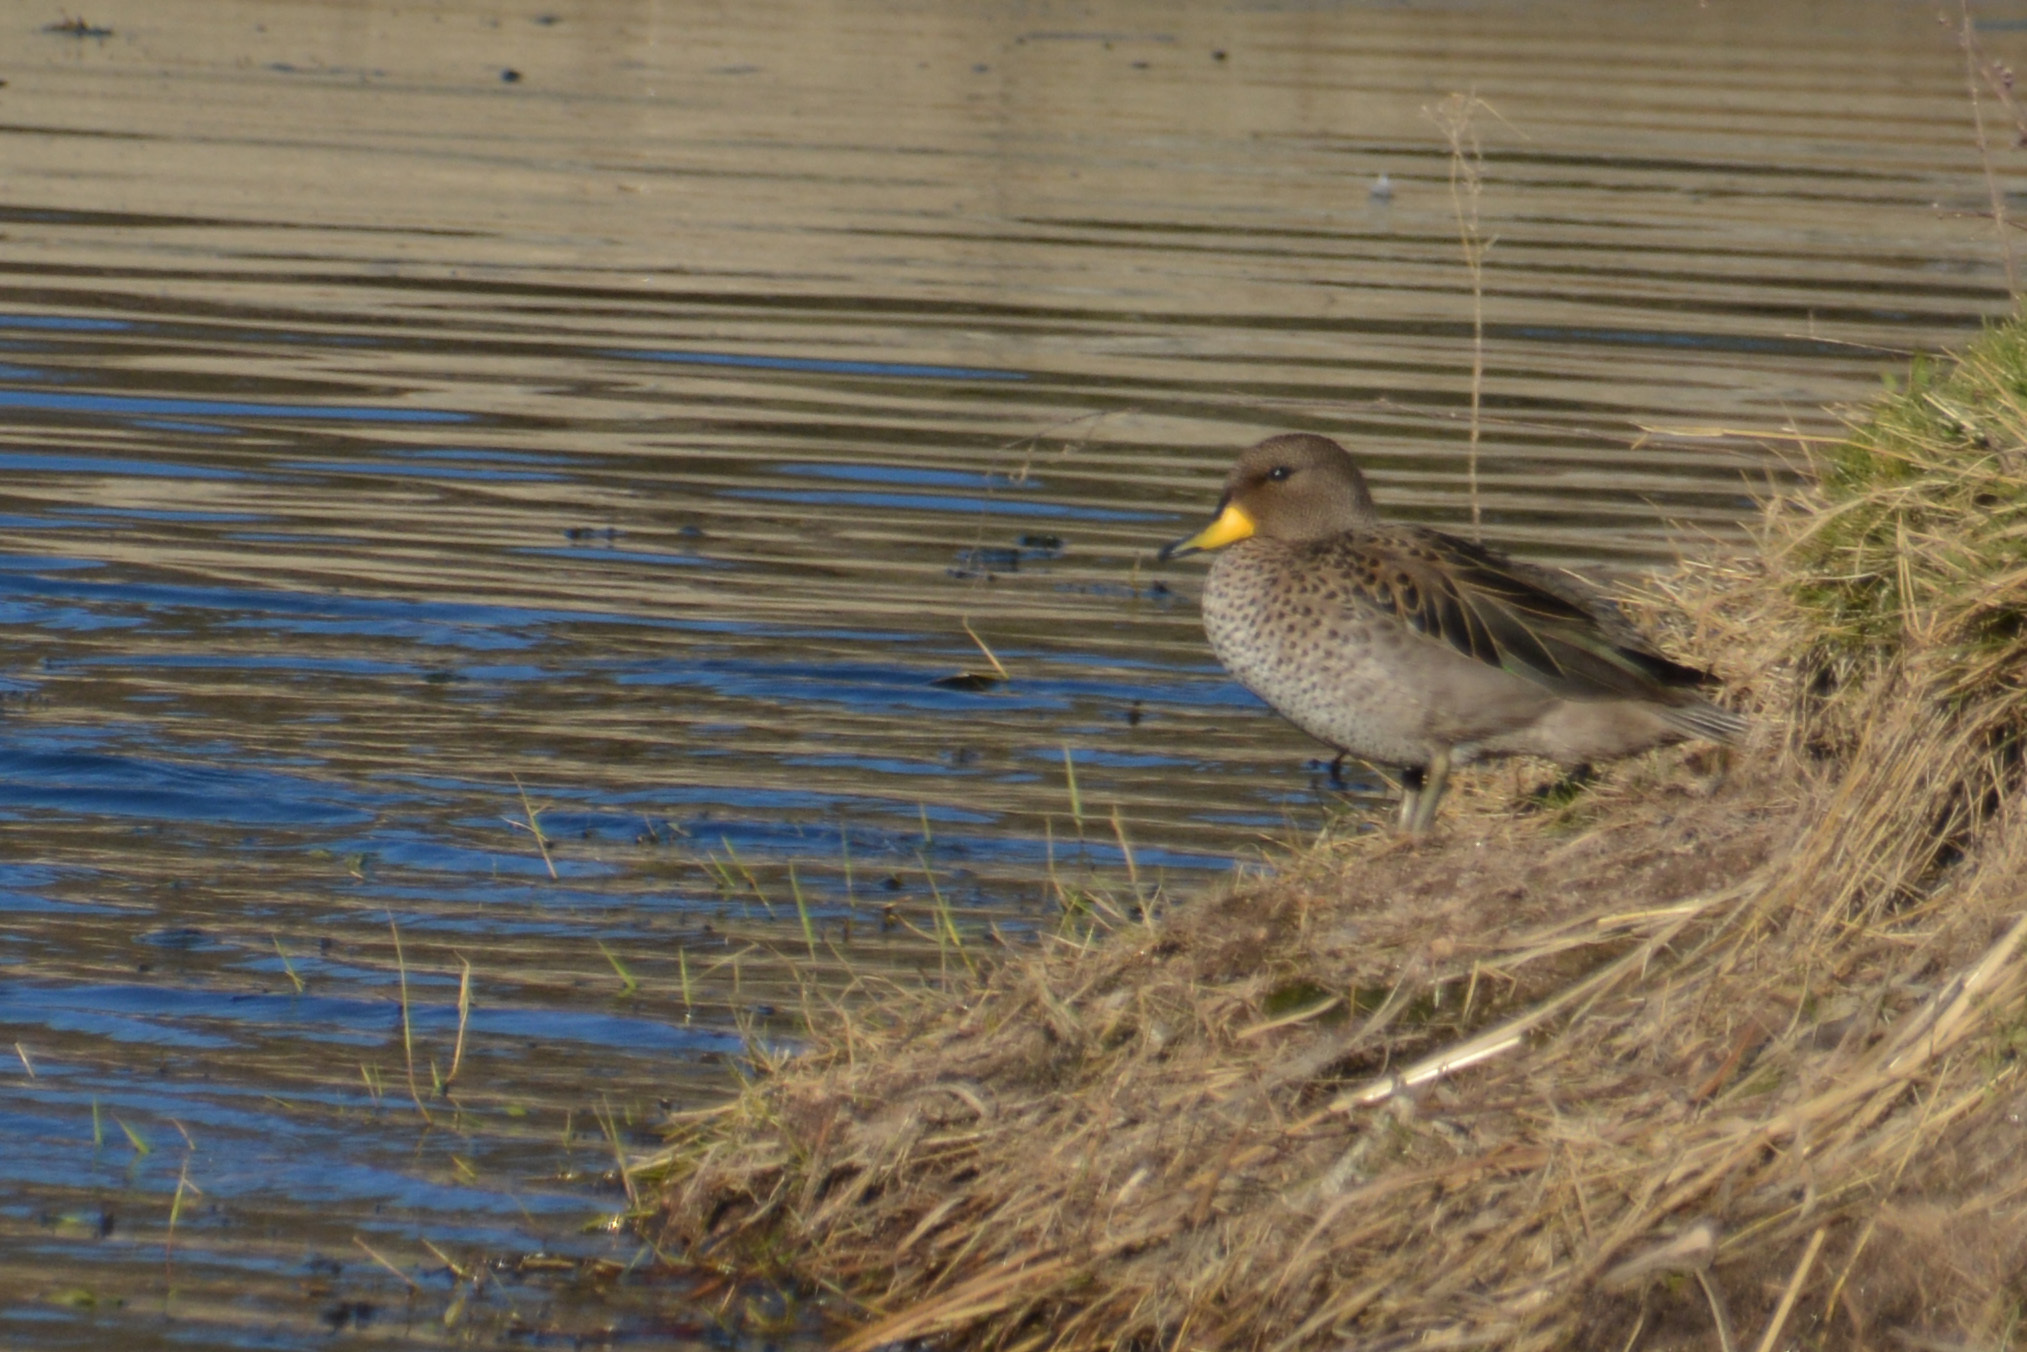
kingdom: Animalia
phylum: Chordata
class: Aves
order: Anseriformes
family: Anatidae
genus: Anas
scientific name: Anas flavirostris
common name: Yellow-billed teal
